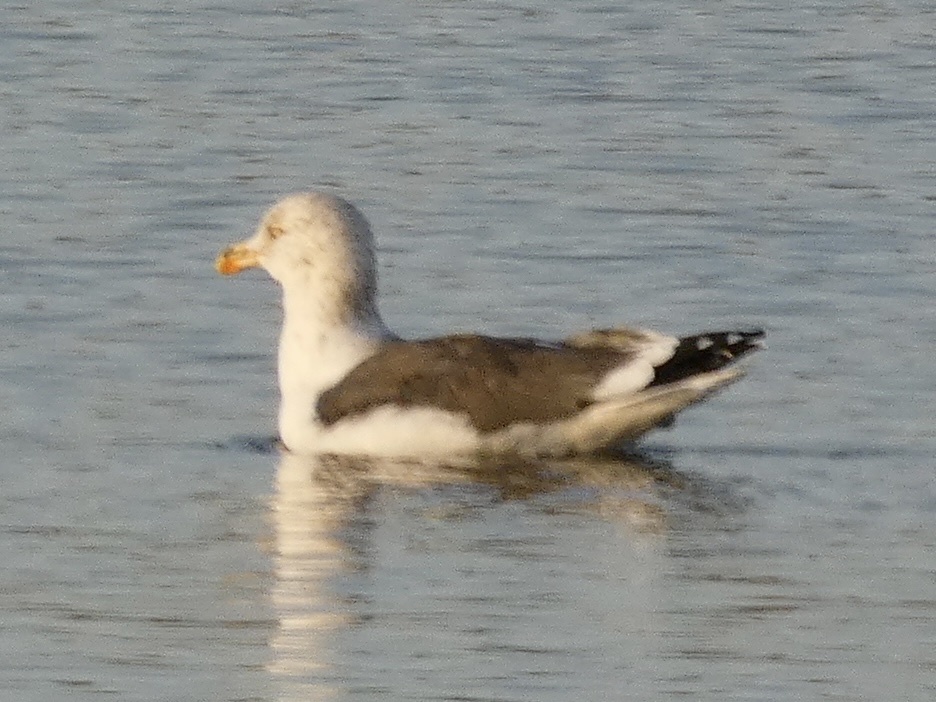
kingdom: Animalia
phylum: Chordata
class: Aves
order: Charadriiformes
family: Laridae
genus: Larus
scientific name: Larus fuscus
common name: Lesser black-backed gull
